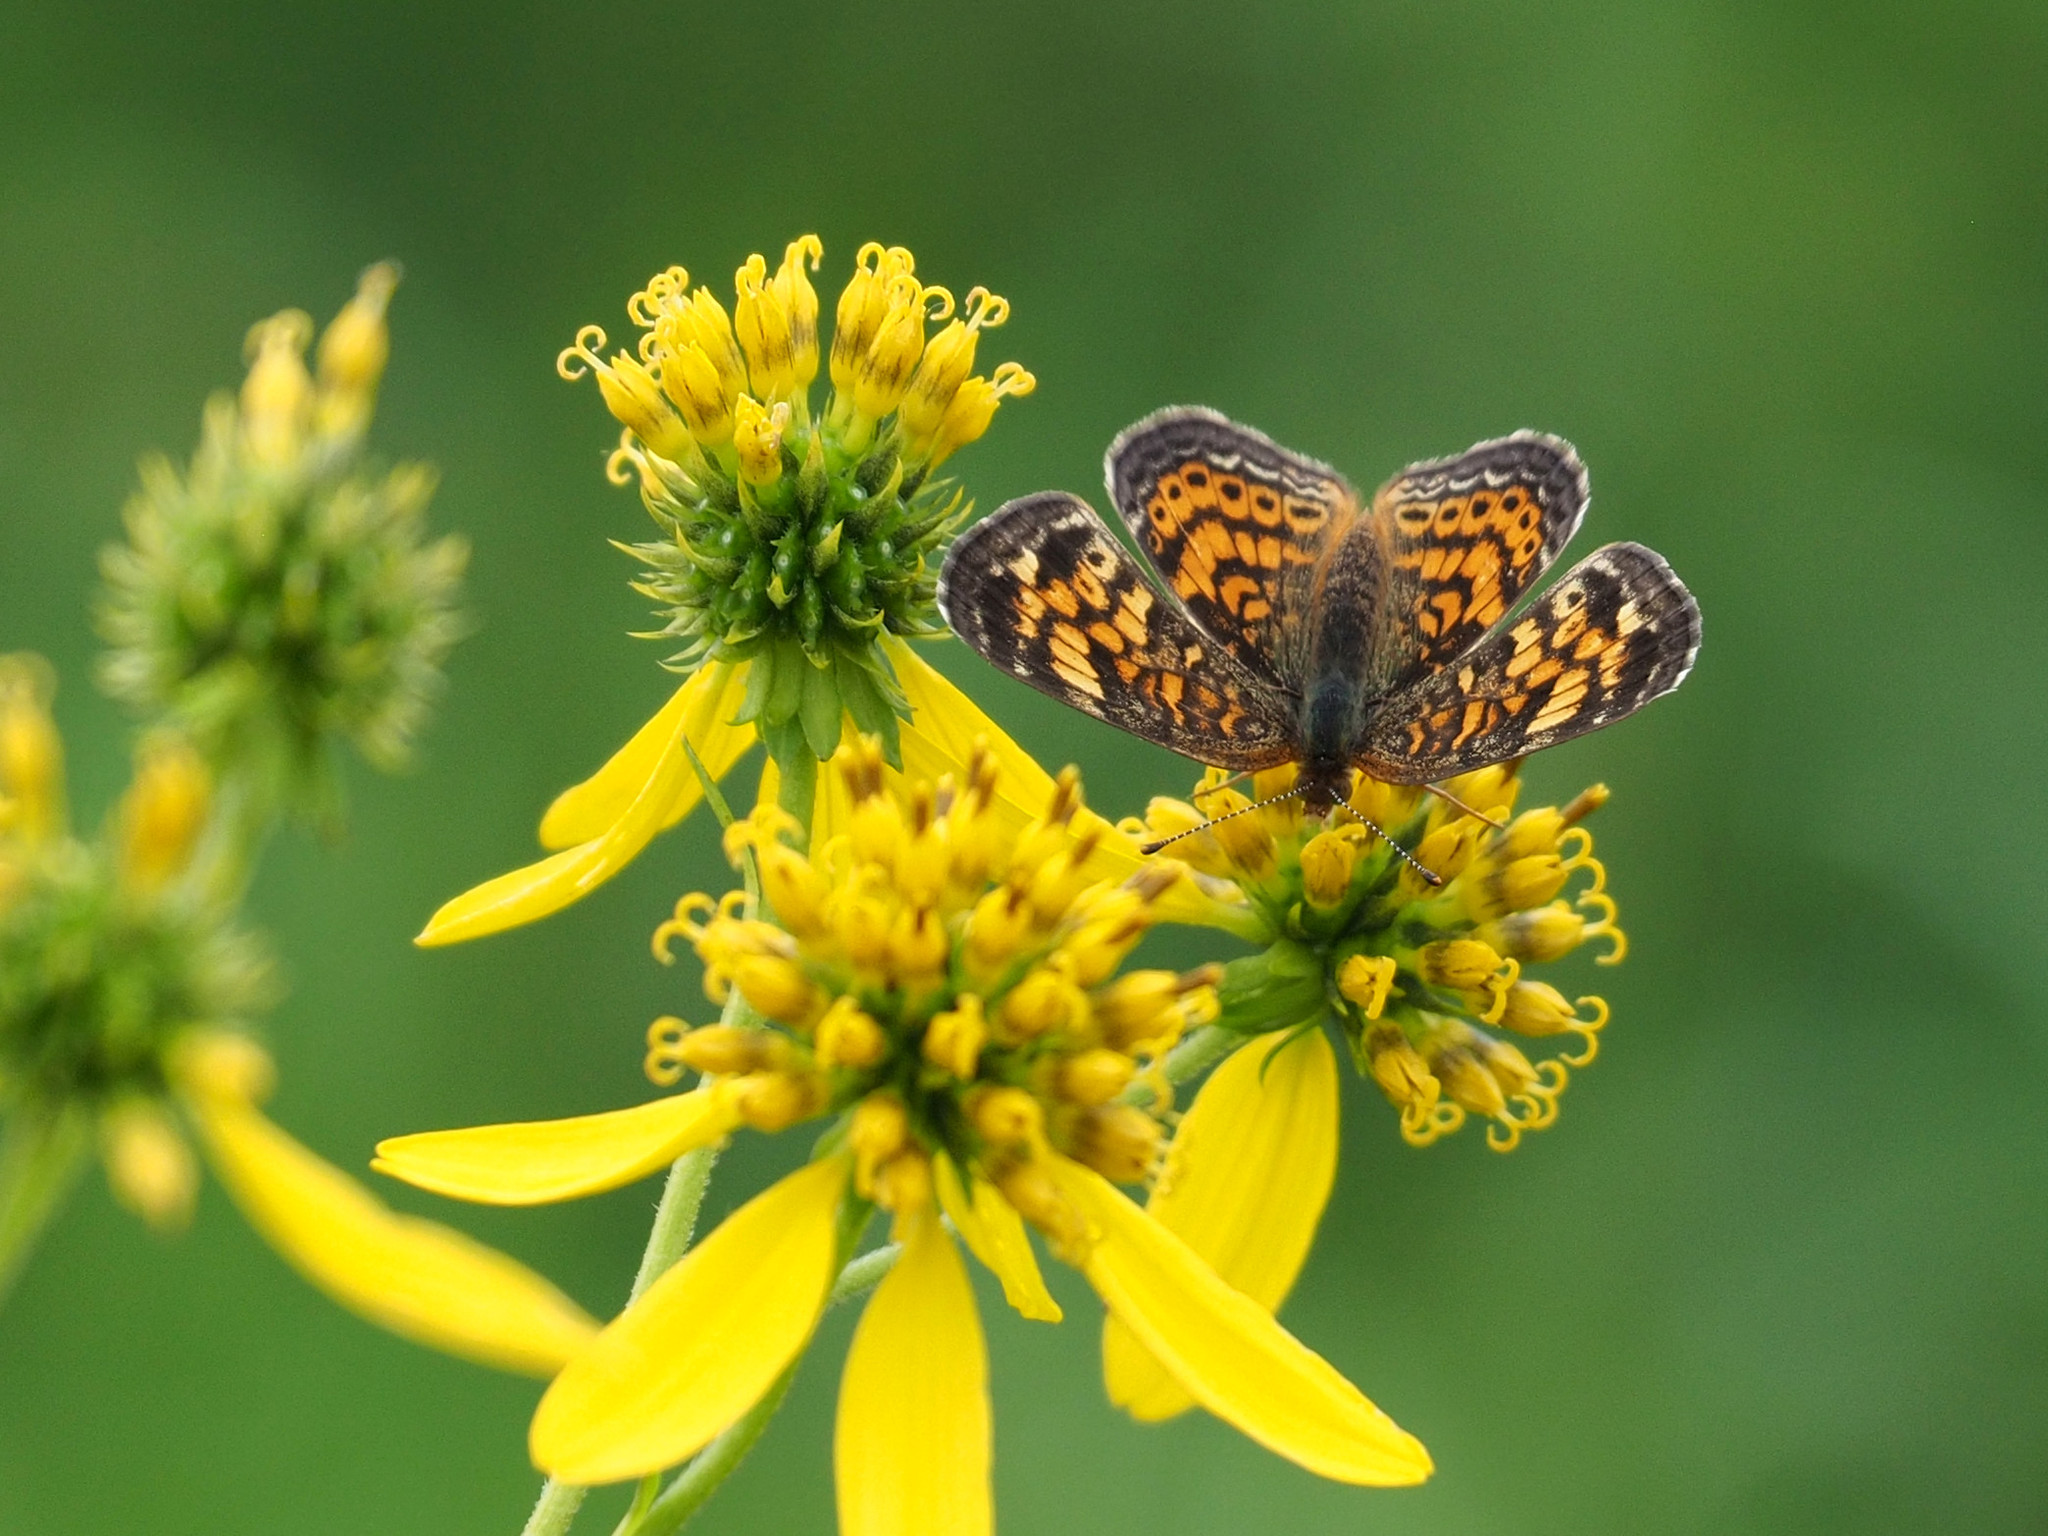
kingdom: Animalia
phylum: Arthropoda
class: Insecta
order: Lepidoptera
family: Nymphalidae
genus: Phyciodes
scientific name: Phyciodes tharos
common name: Pearl crescent
